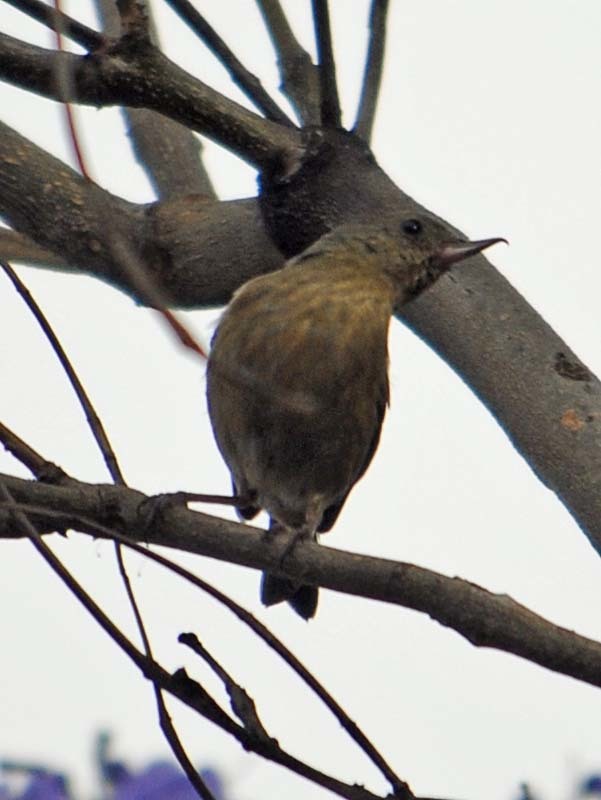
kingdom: Animalia
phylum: Chordata
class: Aves
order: Passeriformes
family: Thraupidae
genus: Diglossa
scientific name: Diglossa baritula
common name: Cinnamon-bellied flowerpiercer
